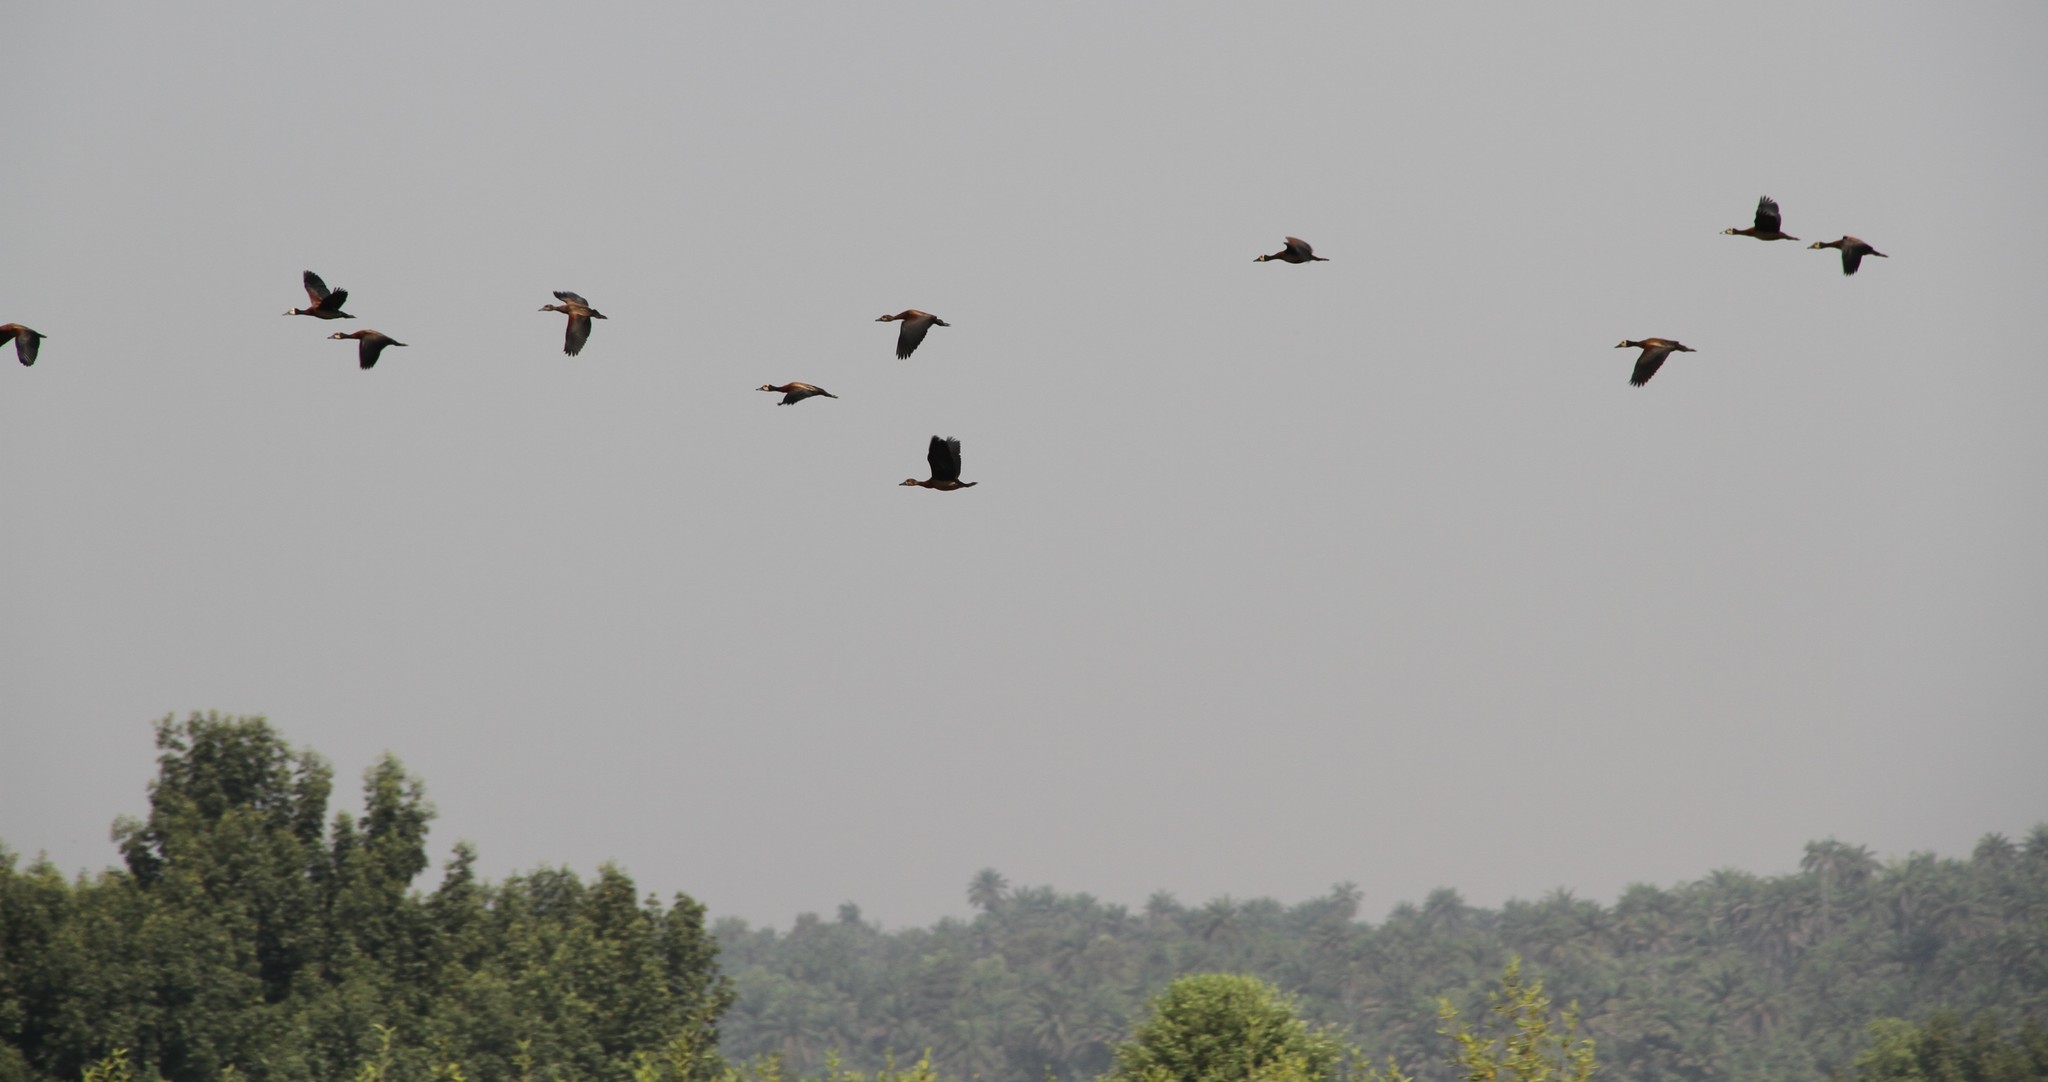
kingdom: Animalia
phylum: Chordata
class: Aves
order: Anseriformes
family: Anatidae
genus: Dendrocygna
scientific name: Dendrocygna viduata
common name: White-faced whistling duck
